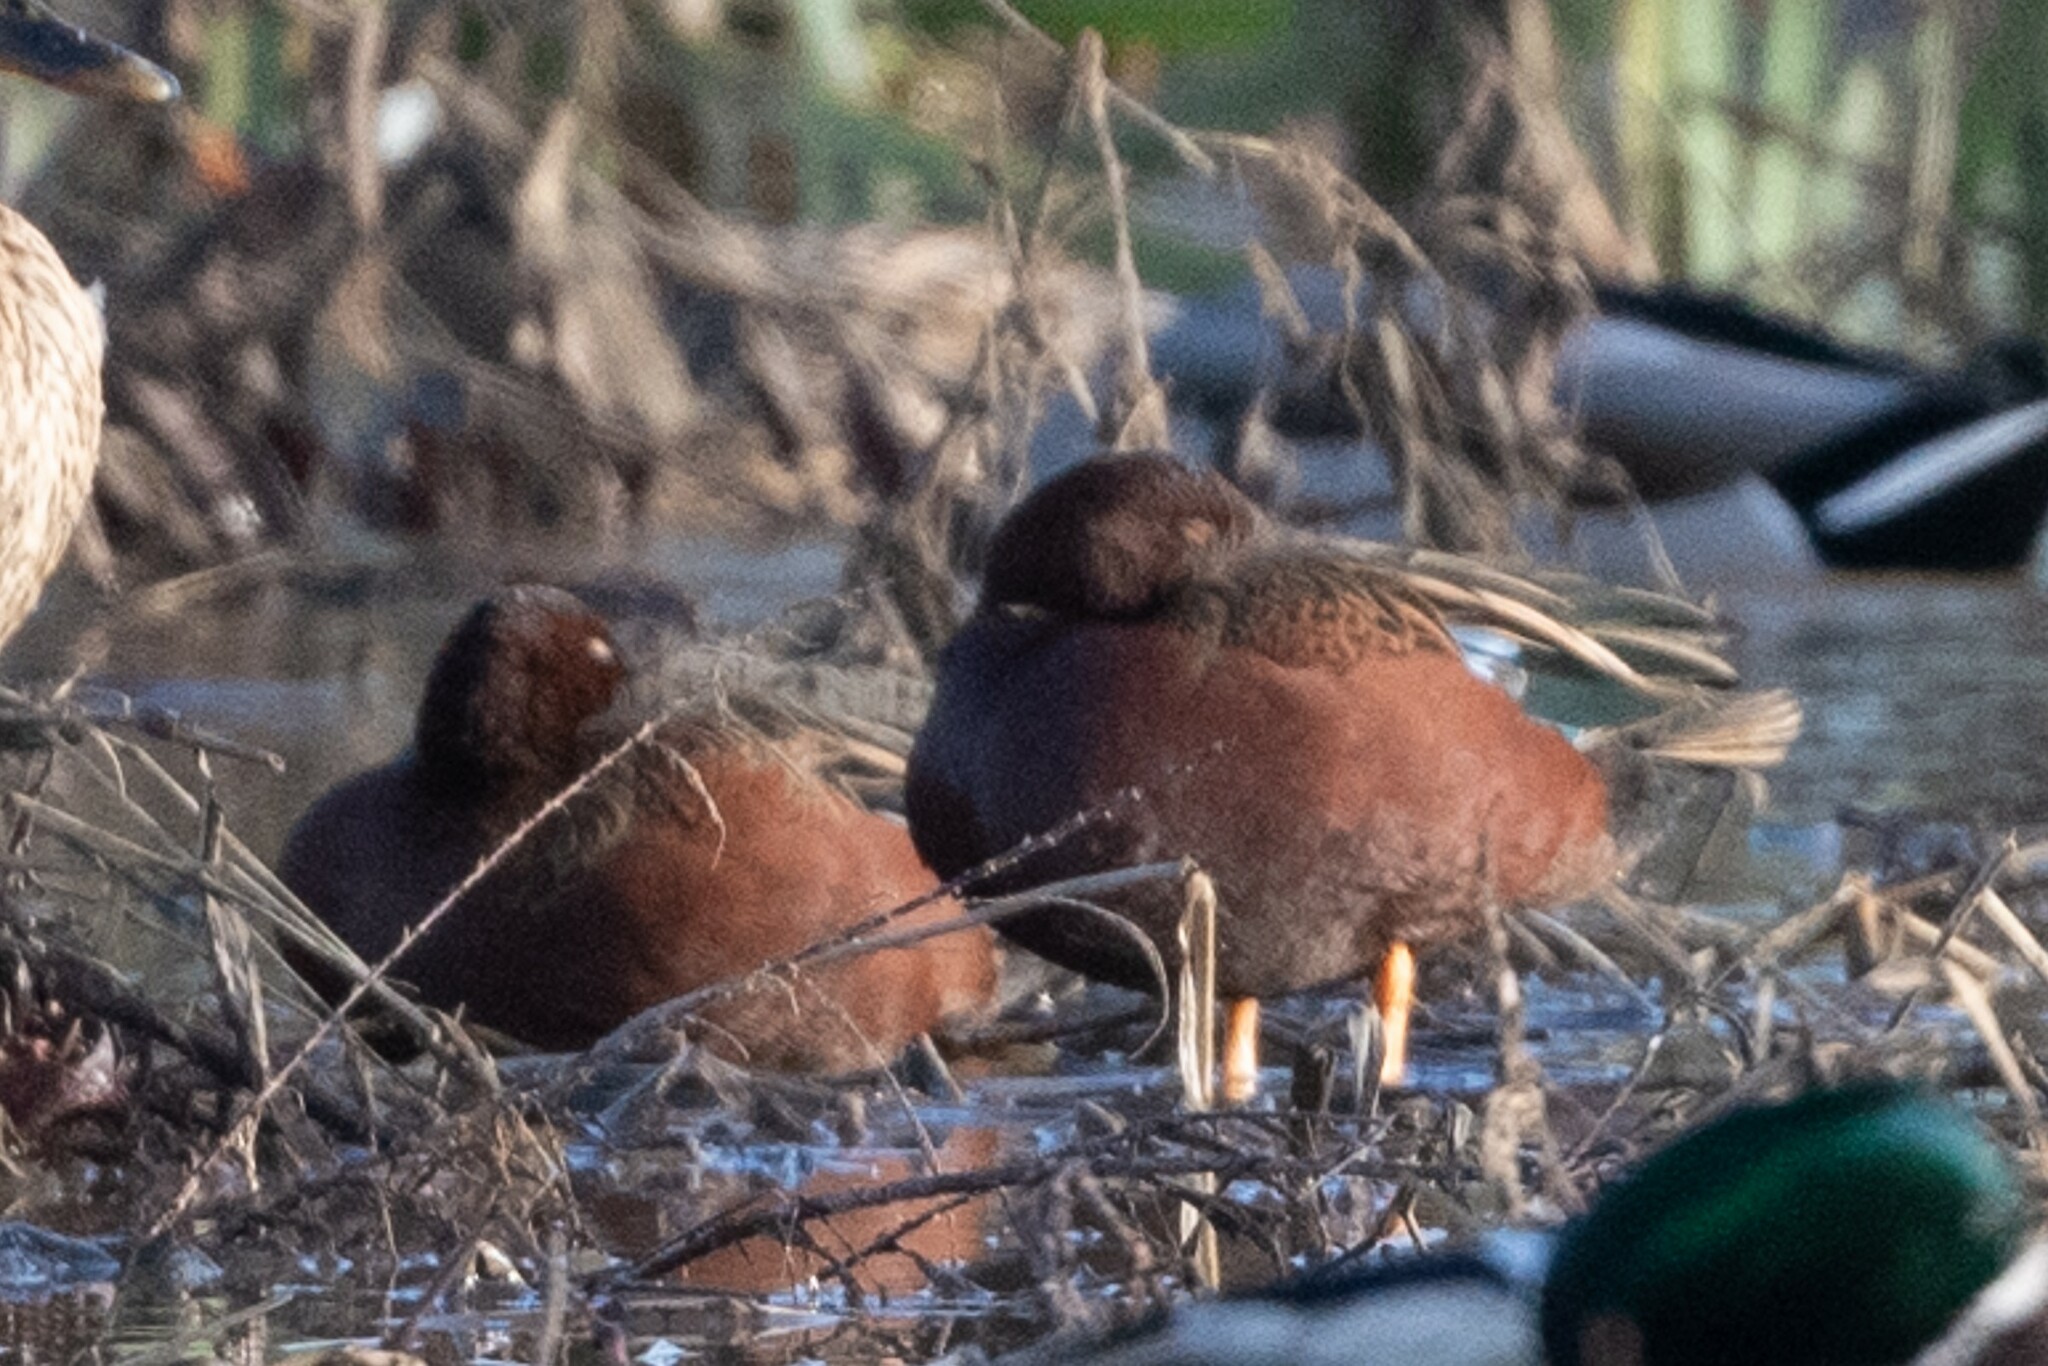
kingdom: Animalia
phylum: Chordata
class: Aves
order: Anseriformes
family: Anatidae
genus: Spatula
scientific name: Spatula cyanoptera
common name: Cinnamon teal
